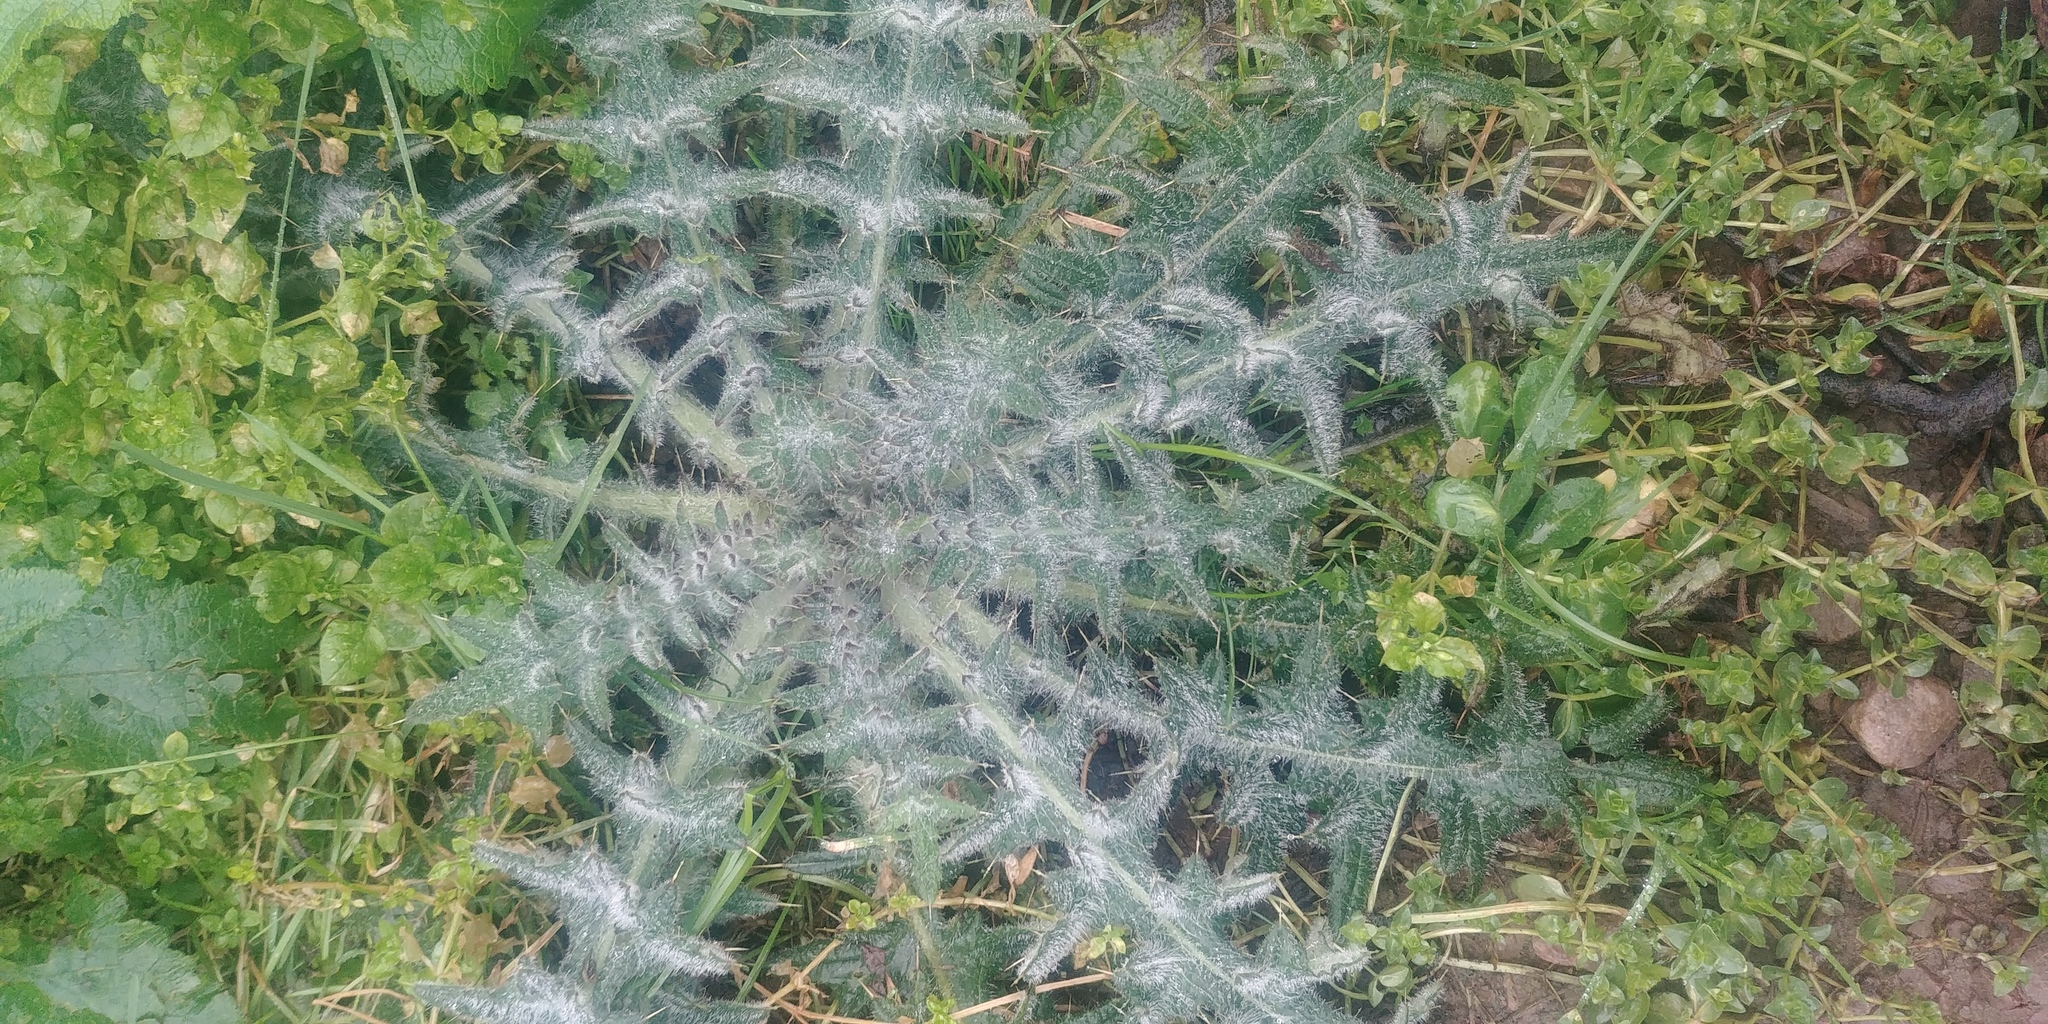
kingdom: Plantae
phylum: Tracheophyta
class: Magnoliopsida
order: Asterales
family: Asteraceae
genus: Cirsium
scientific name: Cirsium vulgare
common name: Bull thistle
